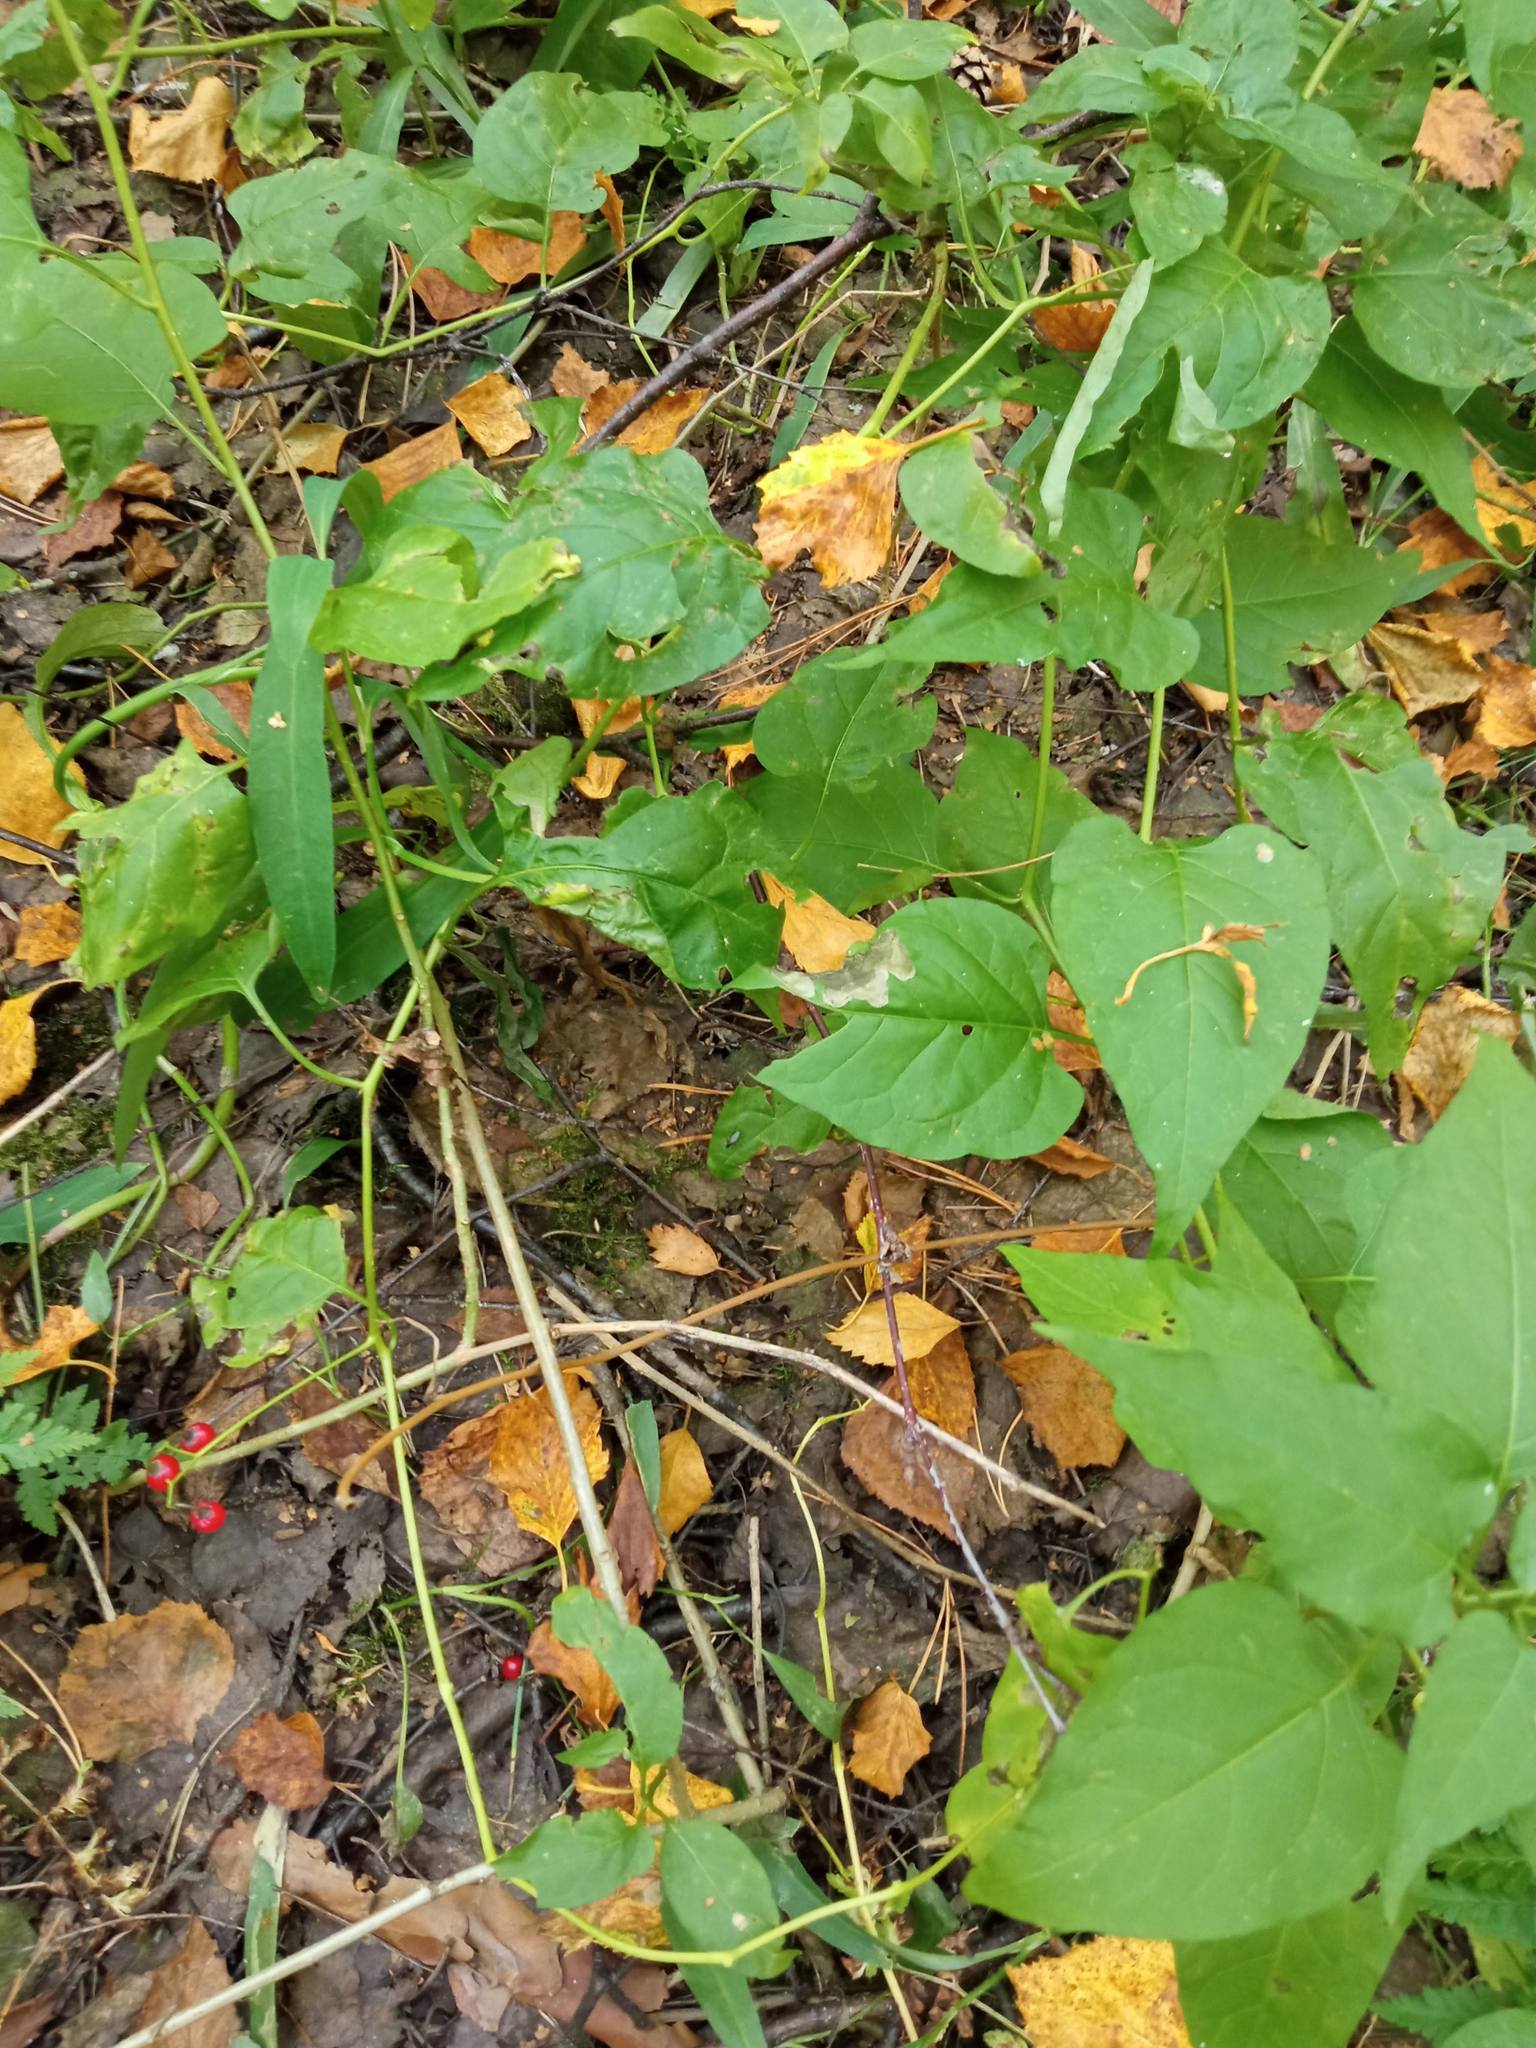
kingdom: Plantae
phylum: Tracheophyta
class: Magnoliopsida
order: Solanales
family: Solanaceae
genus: Solanum
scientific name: Solanum dulcamara
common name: Climbing nightshade
